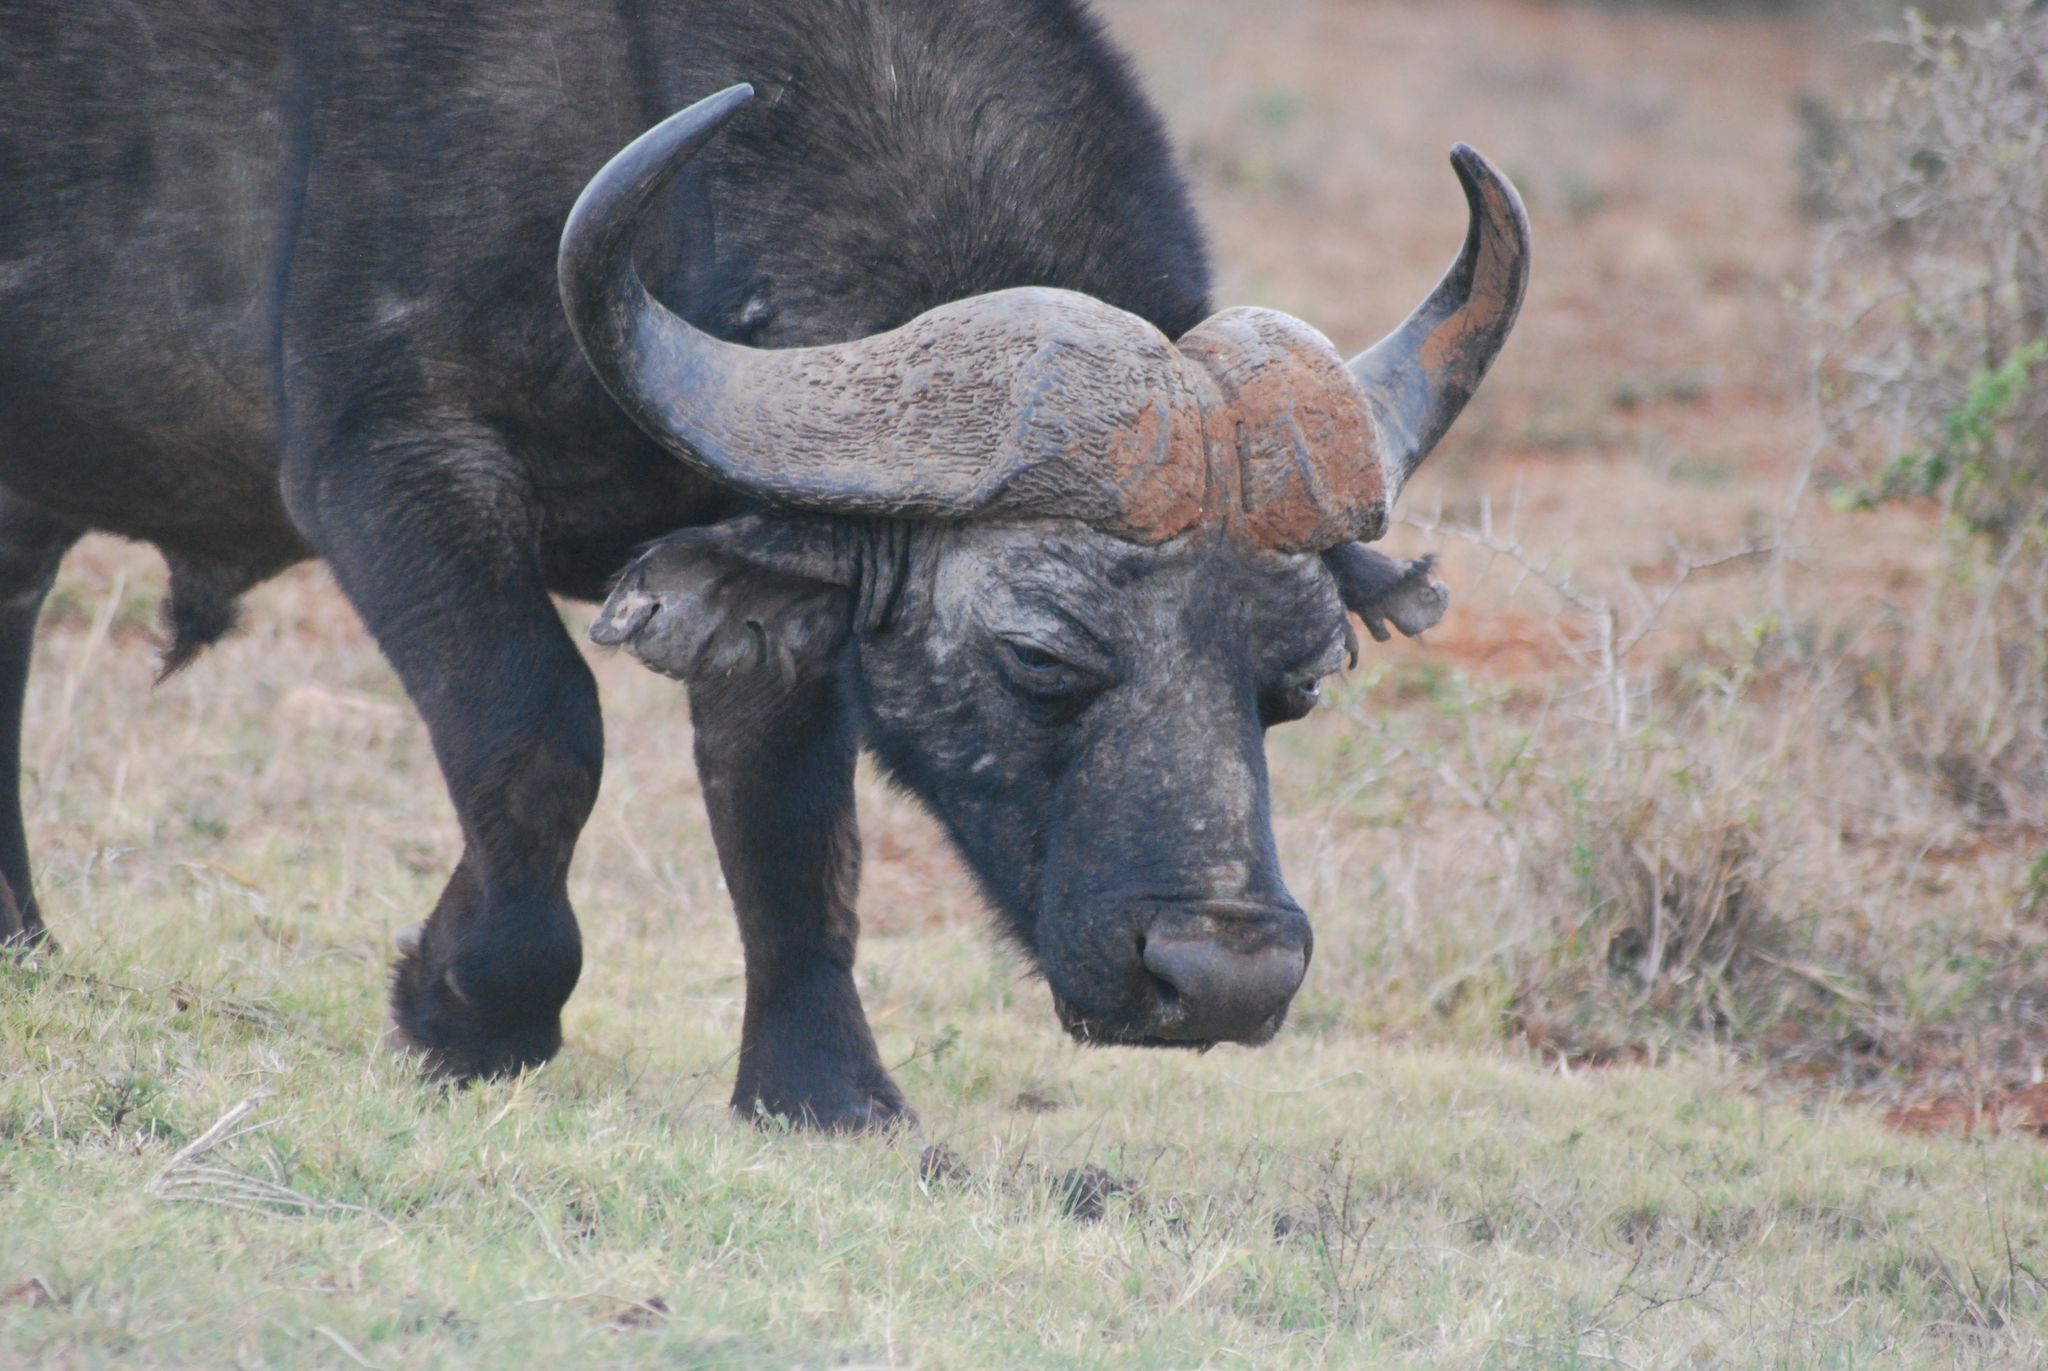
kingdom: Animalia
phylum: Chordata
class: Mammalia
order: Artiodactyla
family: Bovidae
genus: Syncerus
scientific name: Syncerus caffer
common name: African buffalo
